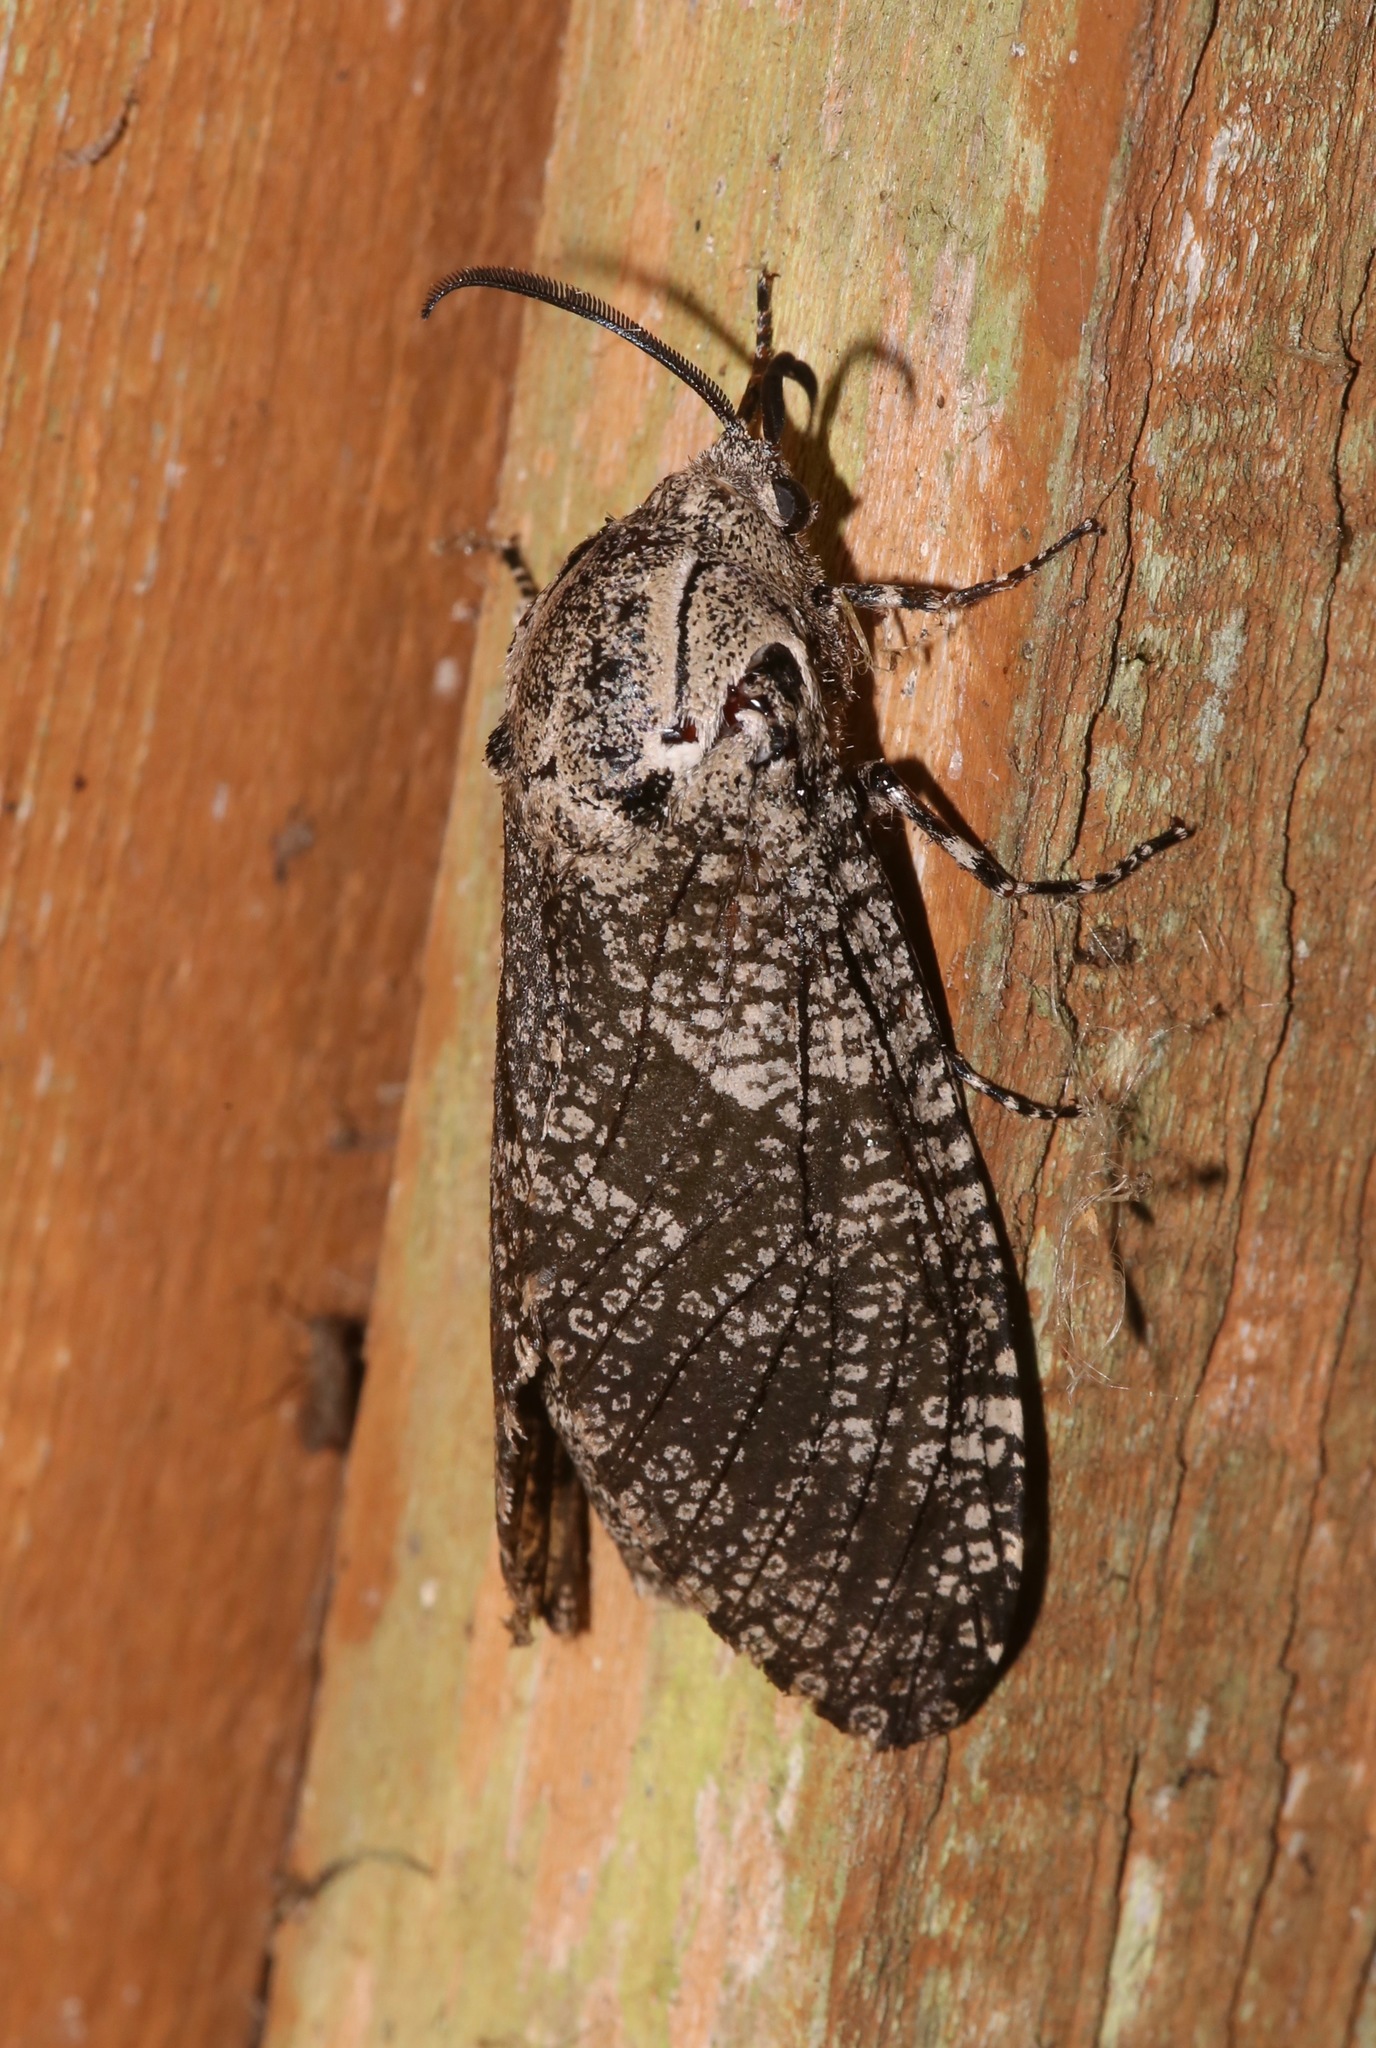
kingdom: Animalia
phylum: Arthropoda
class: Insecta
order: Lepidoptera
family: Cossidae
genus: Prionoxystus
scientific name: Prionoxystus robiniae
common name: Carpenterworm
